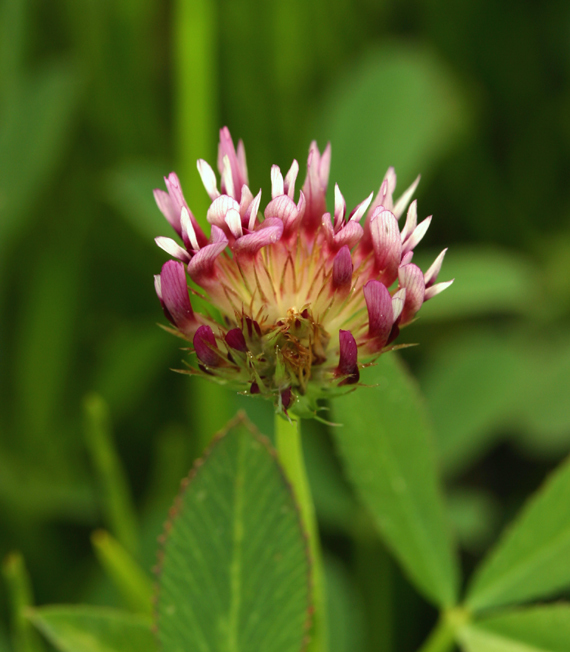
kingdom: Plantae
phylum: Tracheophyta
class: Magnoliopsida
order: Fabales
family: Fabaceae
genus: Trifolium
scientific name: Trifolium wormskioldii
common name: Springbank clover
